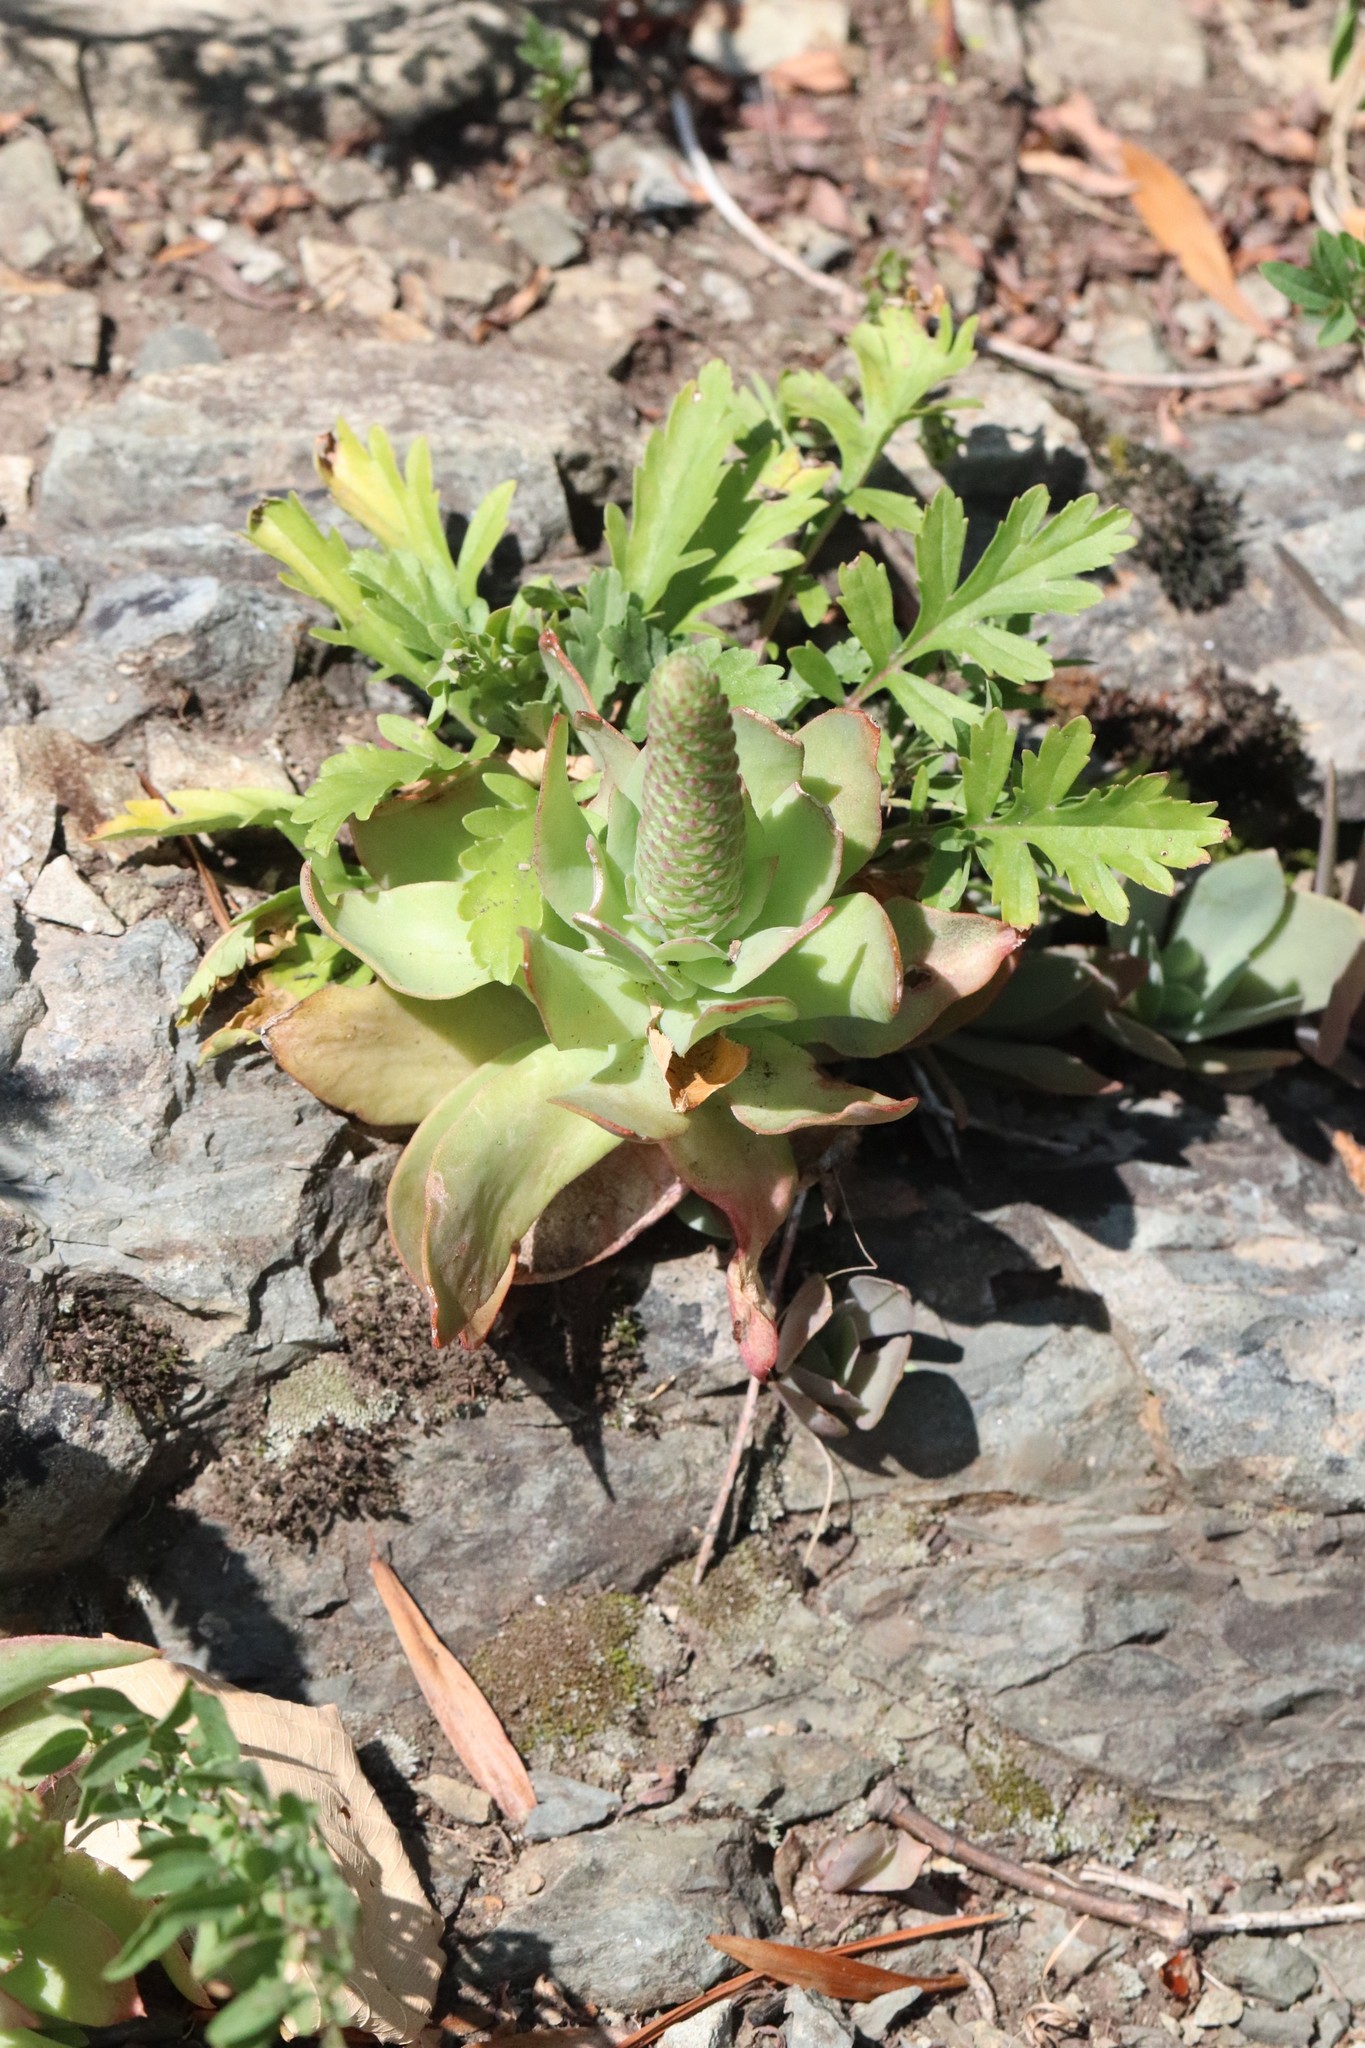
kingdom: Plantae
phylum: Tracheophyta
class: Magnoliopsida
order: Saxifragales
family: Crassulaceae
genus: Orostachys
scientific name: Orostachys malacophylla
